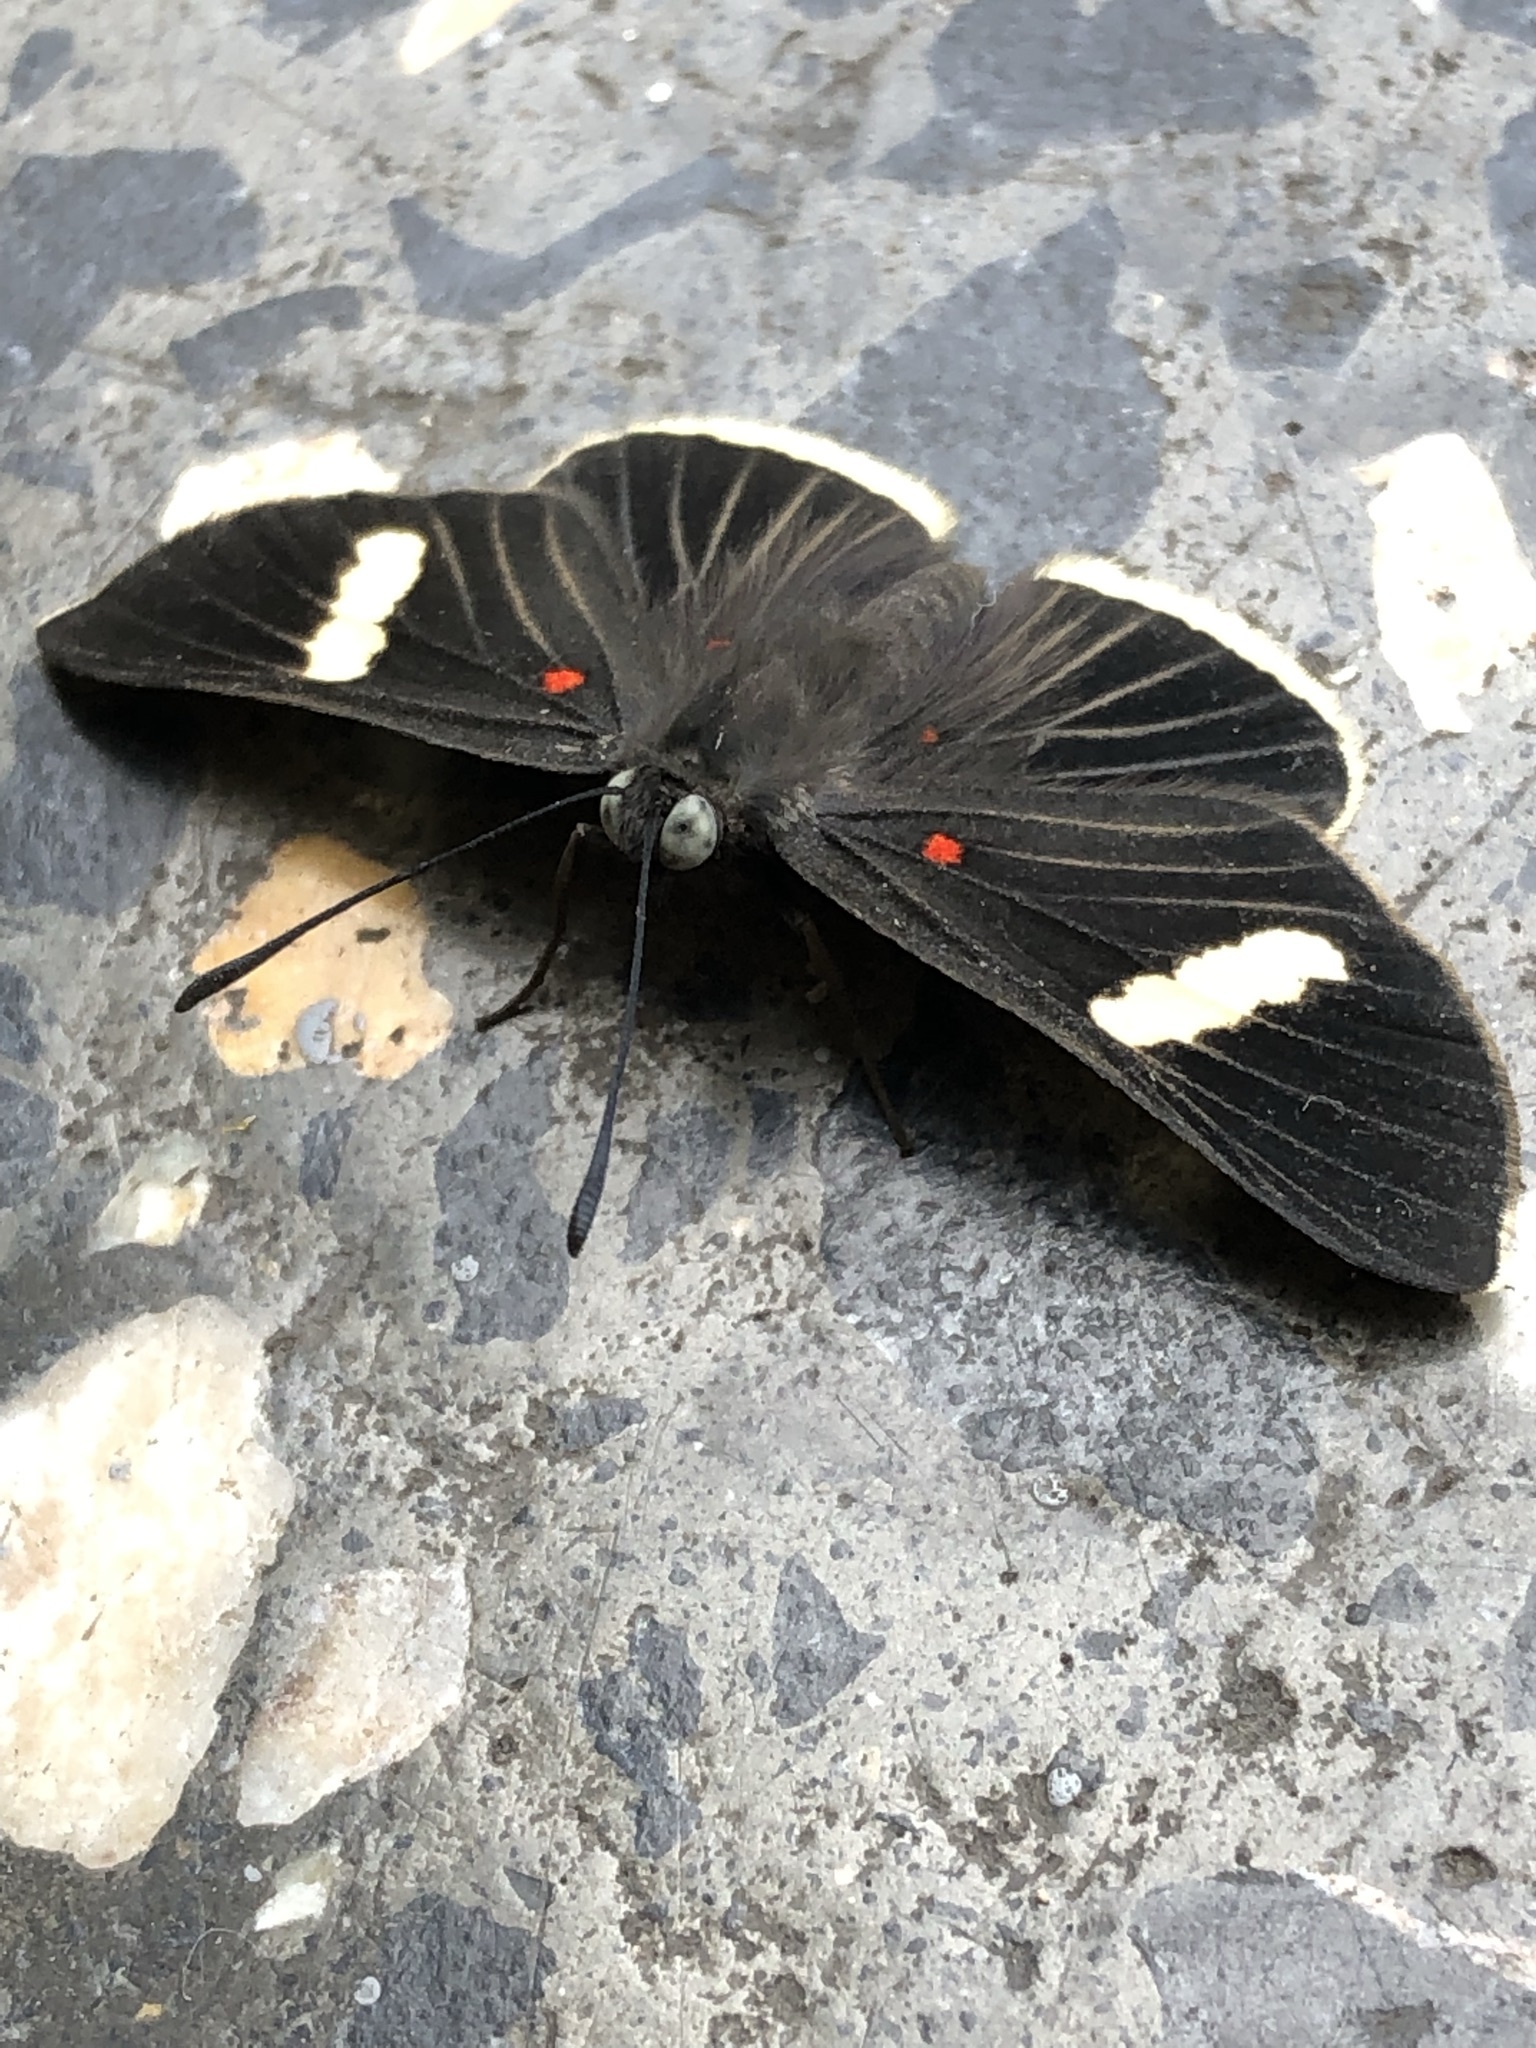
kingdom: Animalia
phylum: Arthropoda
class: Insecta
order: Lepidoptera
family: Lycaenidae
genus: Melanis
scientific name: Melanis
